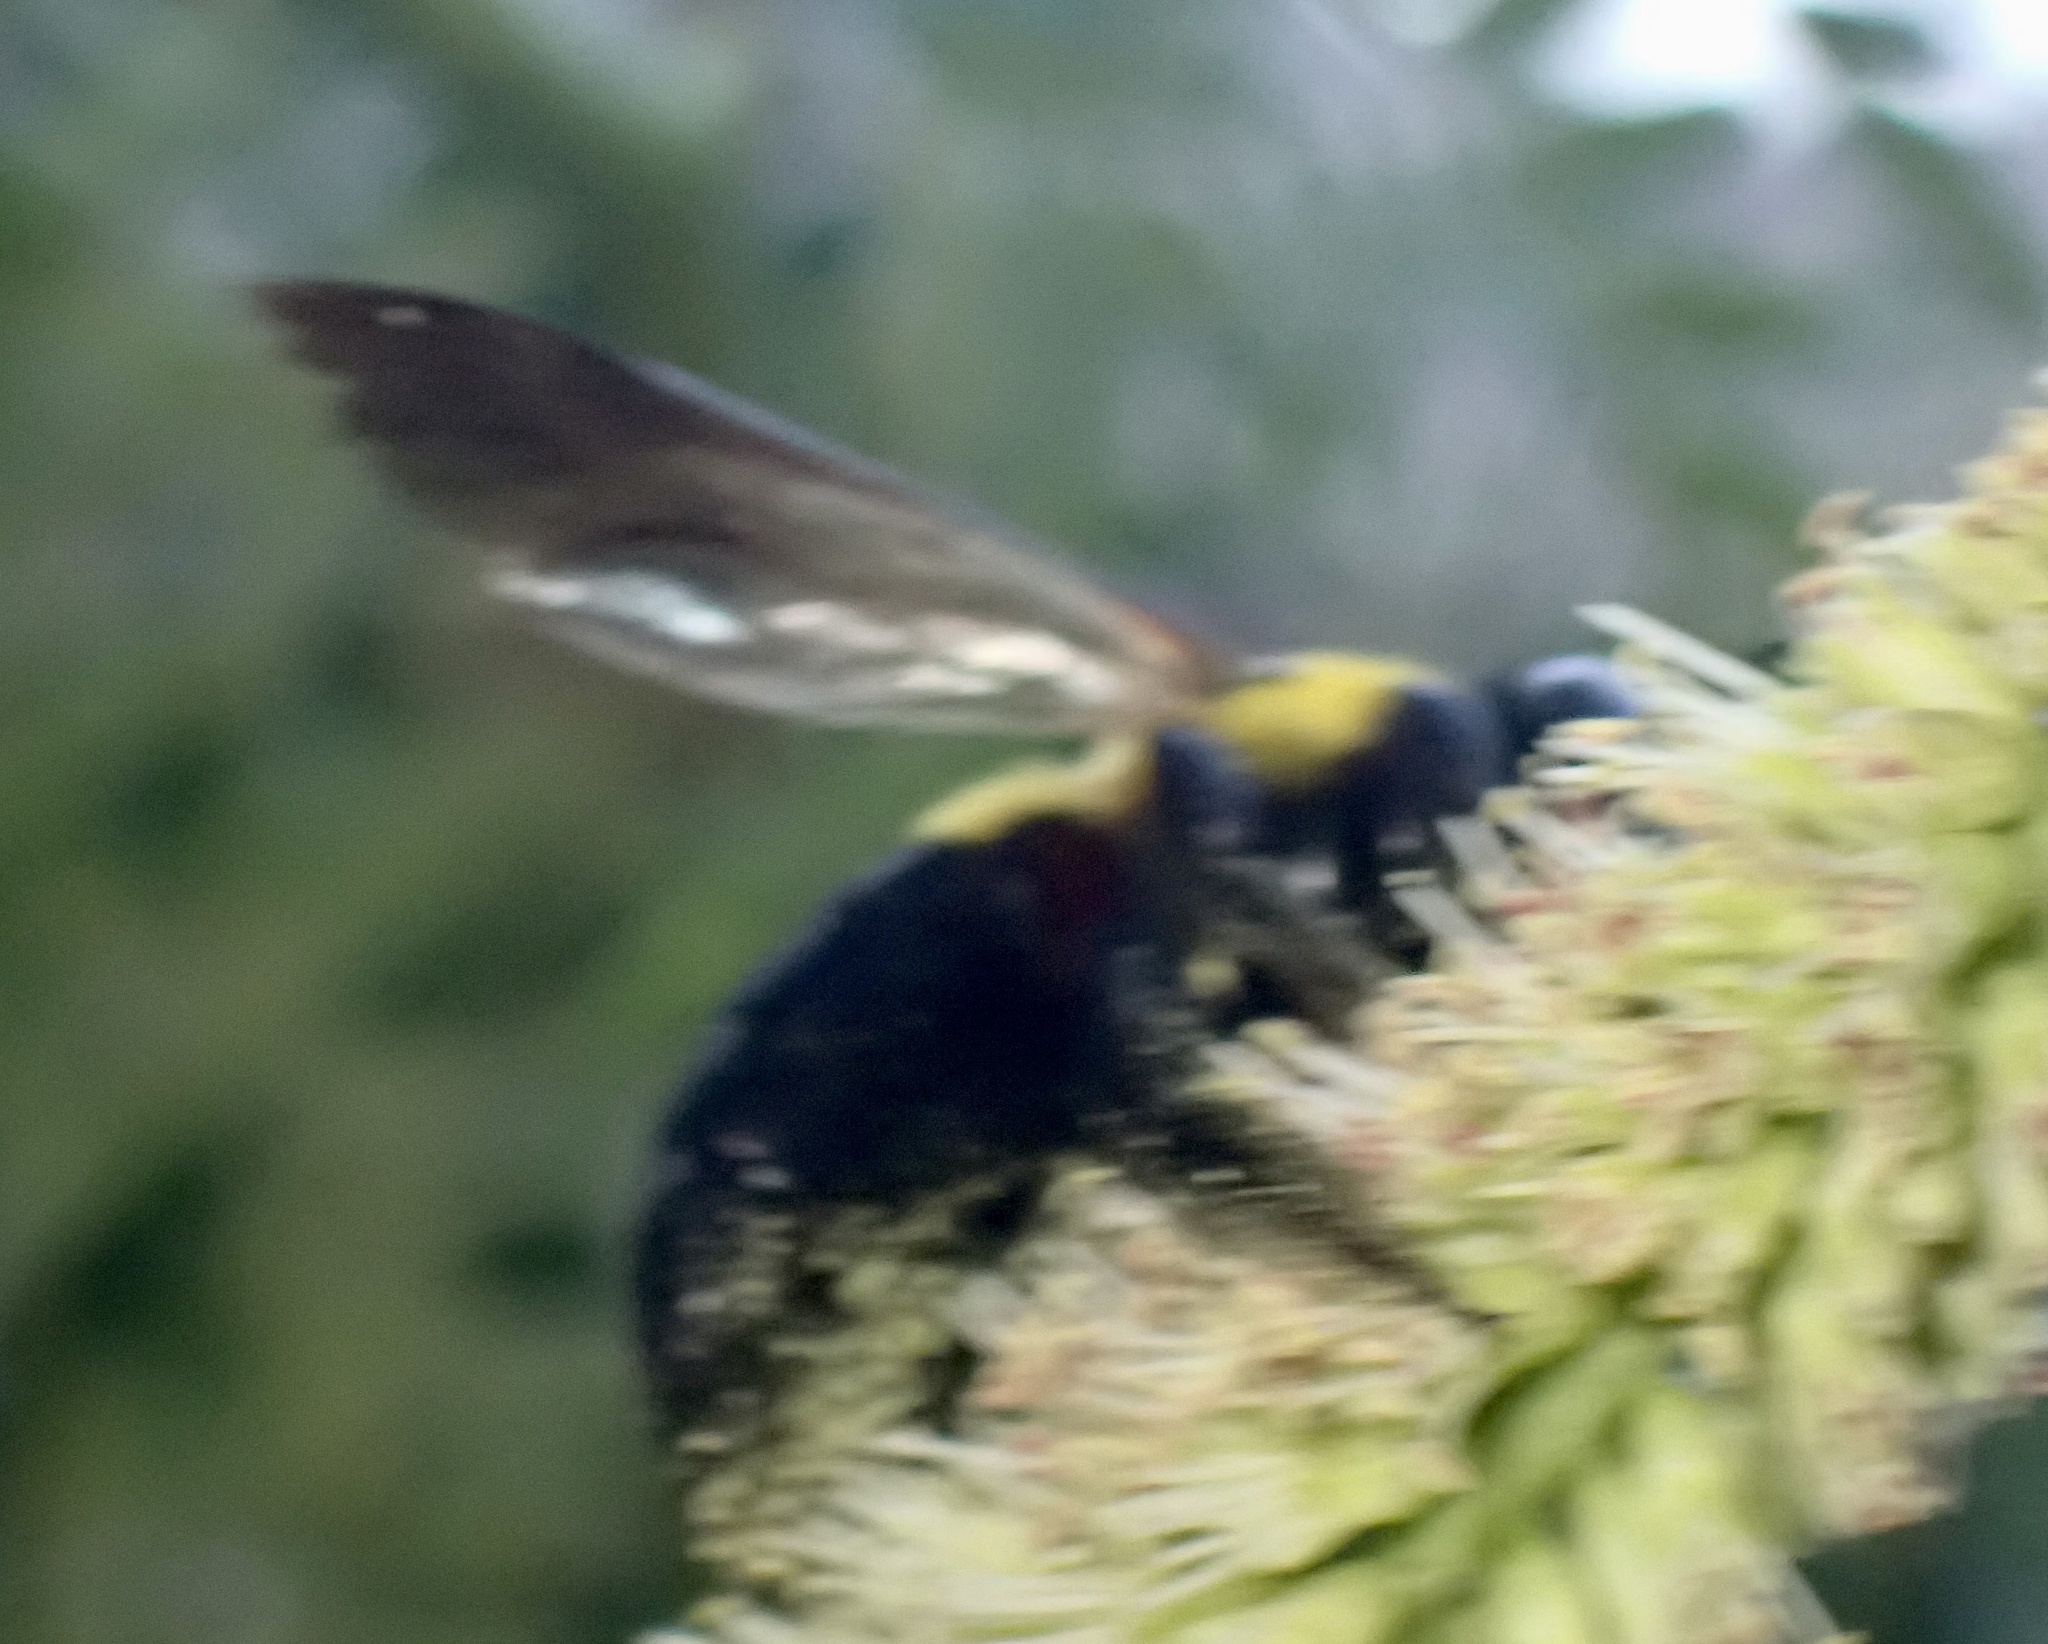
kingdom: Animalia
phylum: Arthropoda
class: Insecta
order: Hymenoptera
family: Apidae
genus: Xylocopa
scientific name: Xylocopa modesta
